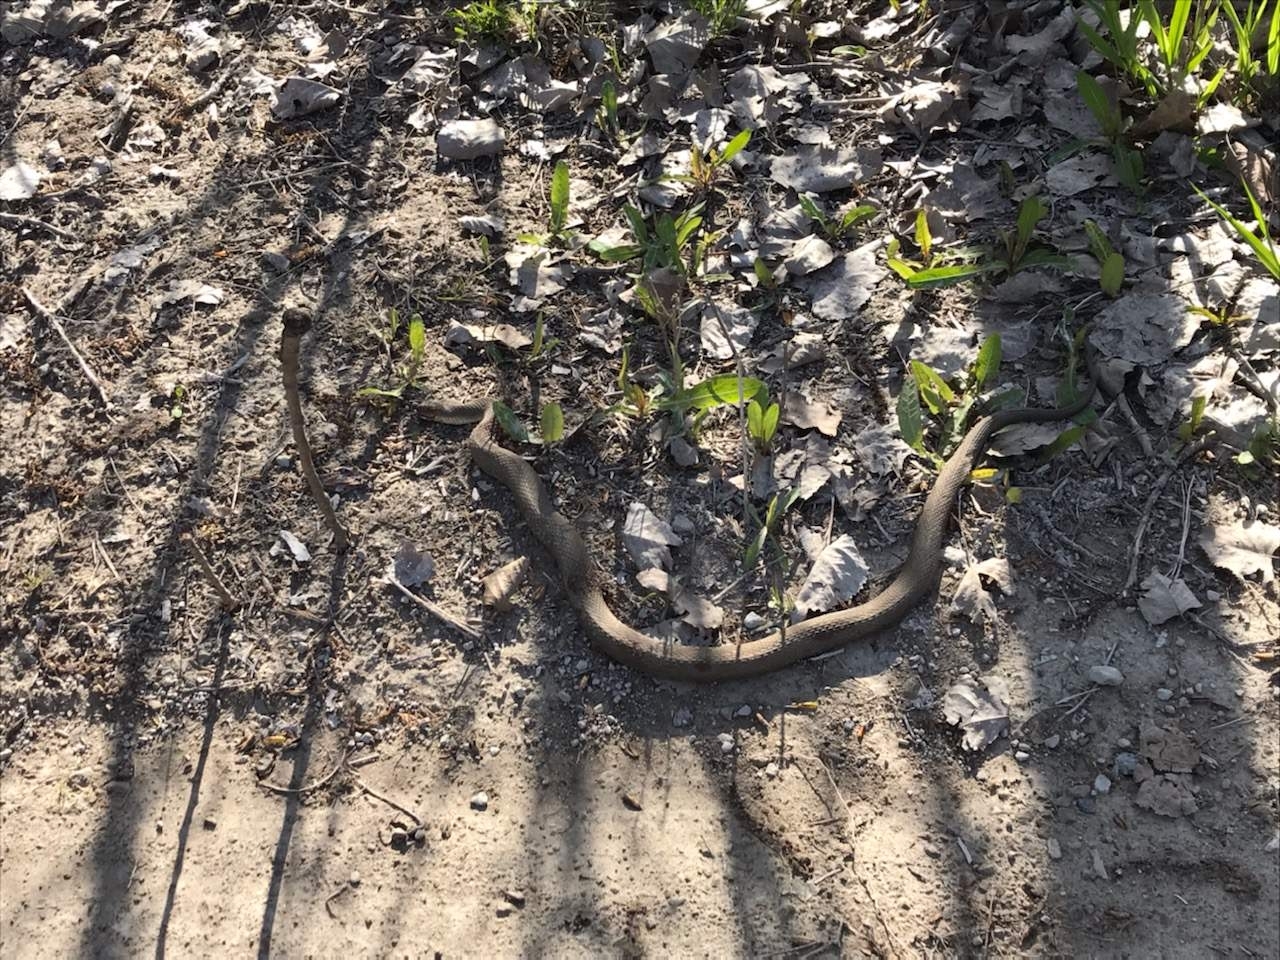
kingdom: Animalia
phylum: Chordata
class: Squamata
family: Colubridae
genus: Nerodia
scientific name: Nerodia sipedon
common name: Northern water snake
